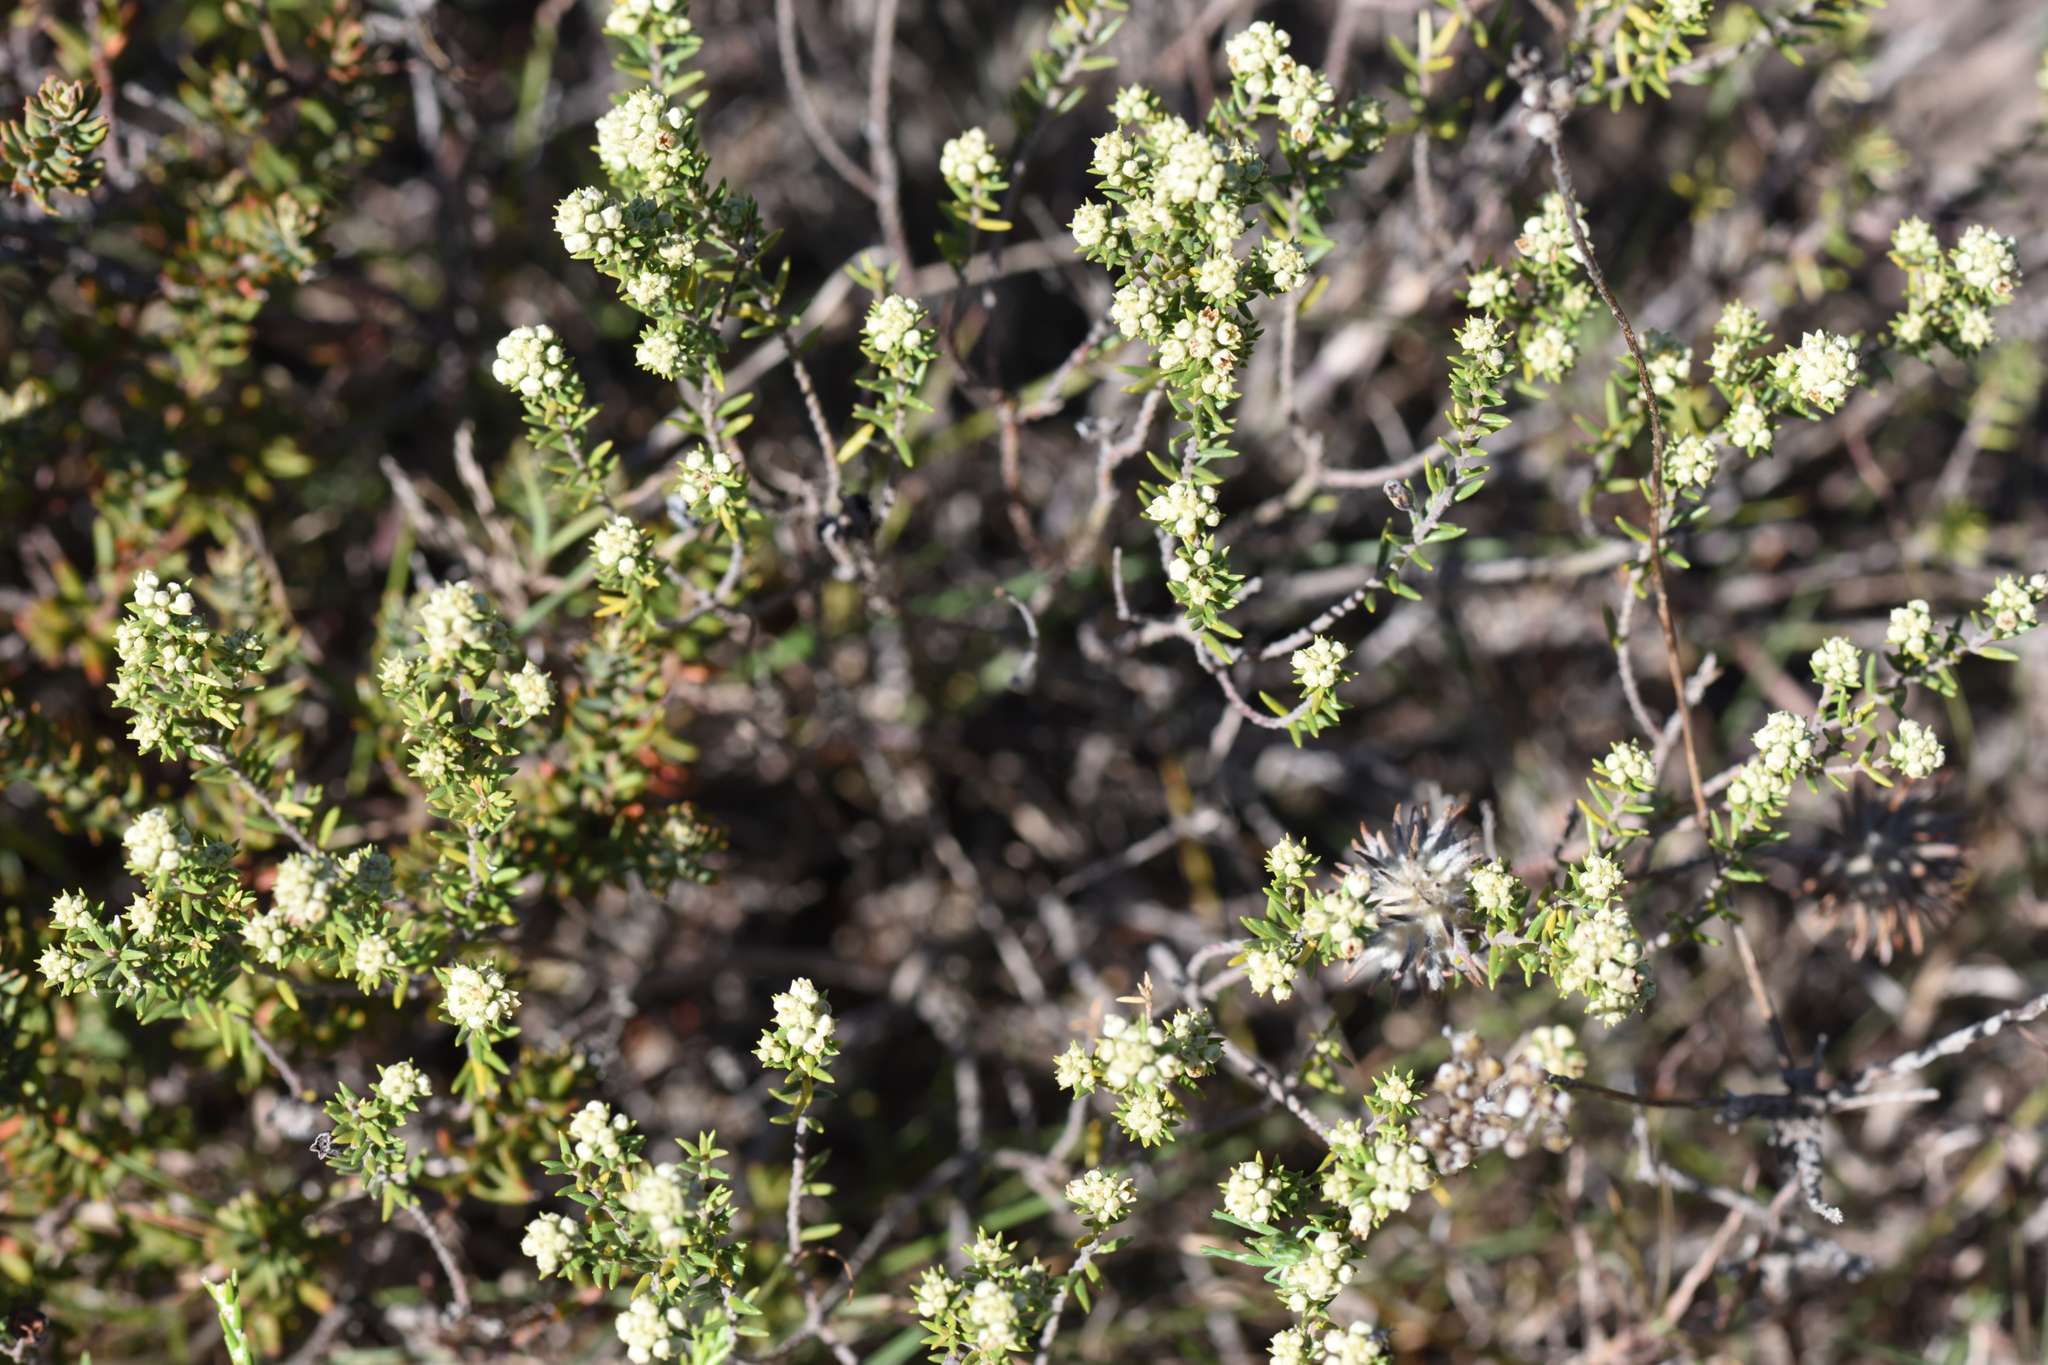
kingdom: Plantae
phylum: Tracheophyta
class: Magnoliopsida
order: Rosales
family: Rhamnaceae
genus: Phylica
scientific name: Phylica axillaris
